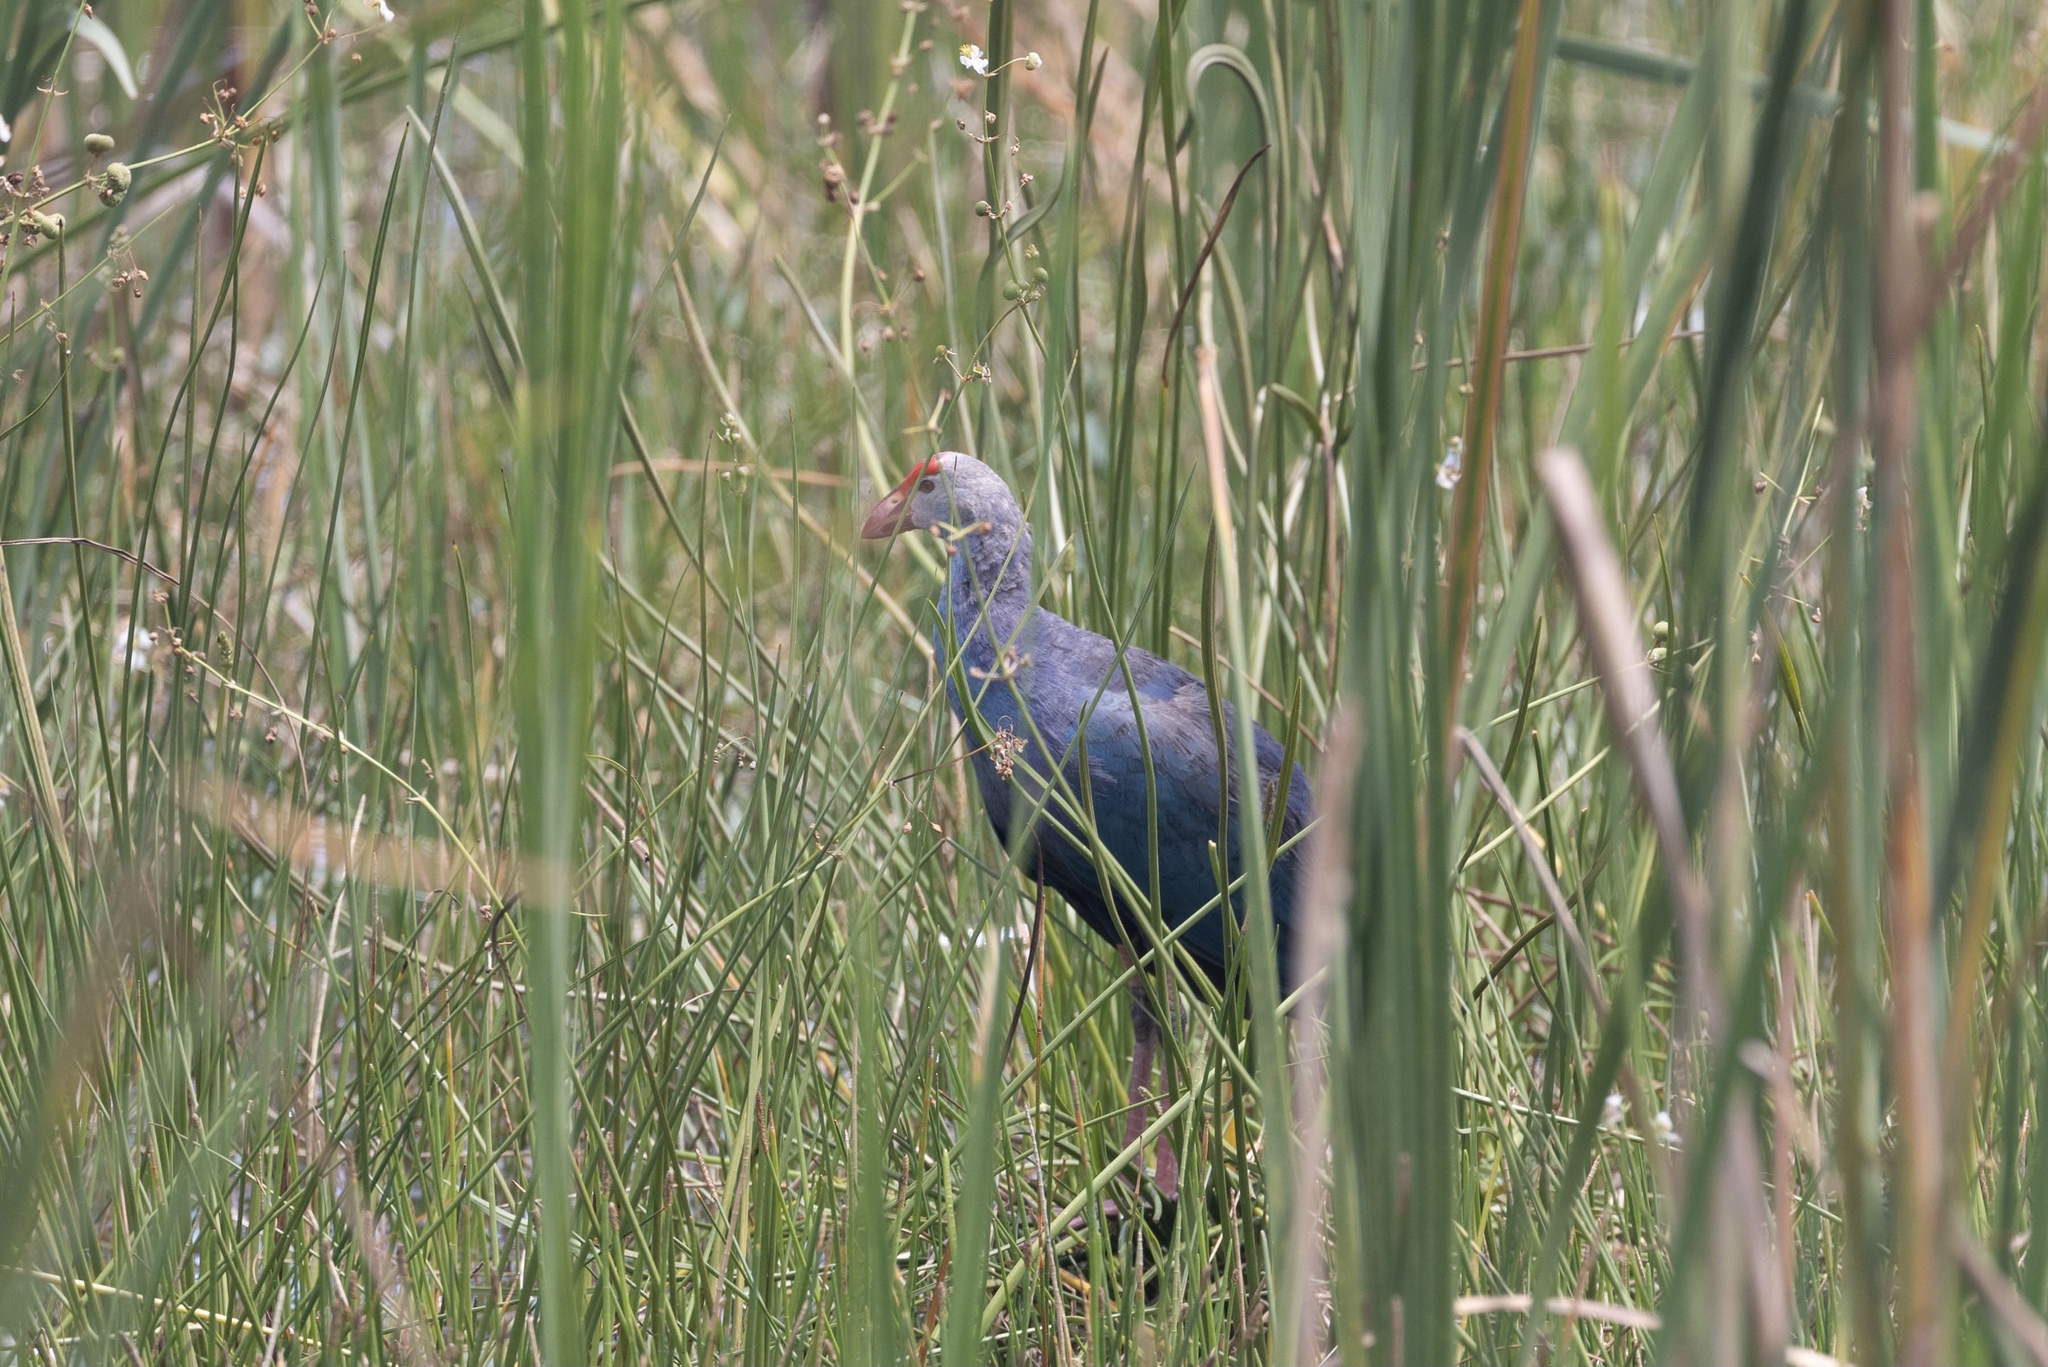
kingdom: Animalia
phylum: Chordata
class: Aves
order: Gruiformes
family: Rallidae
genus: Porphyrio
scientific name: Porphyrio porphyrio
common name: Purple swamphen
